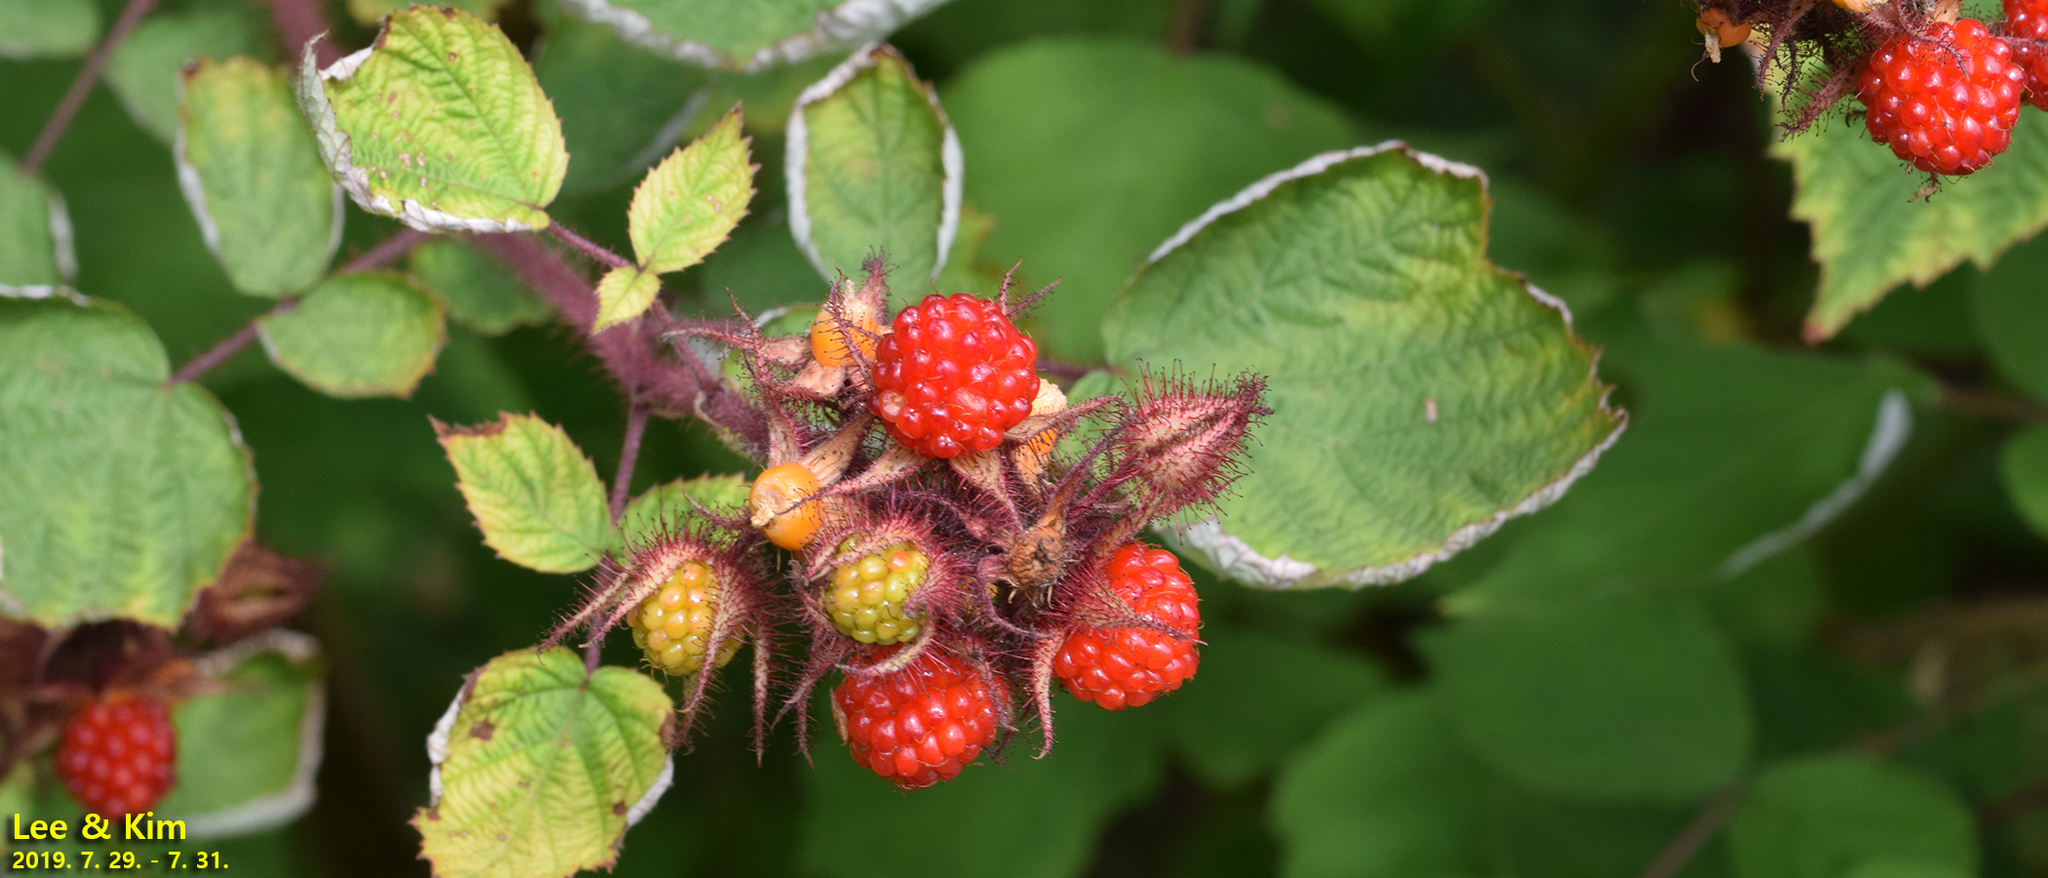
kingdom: Plantae
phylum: Tracheophyta
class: Magnoliopsida
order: Rosales
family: Rosaceae
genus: Rubus
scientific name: Rubus phoenicolasius
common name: Japanese wineberry
